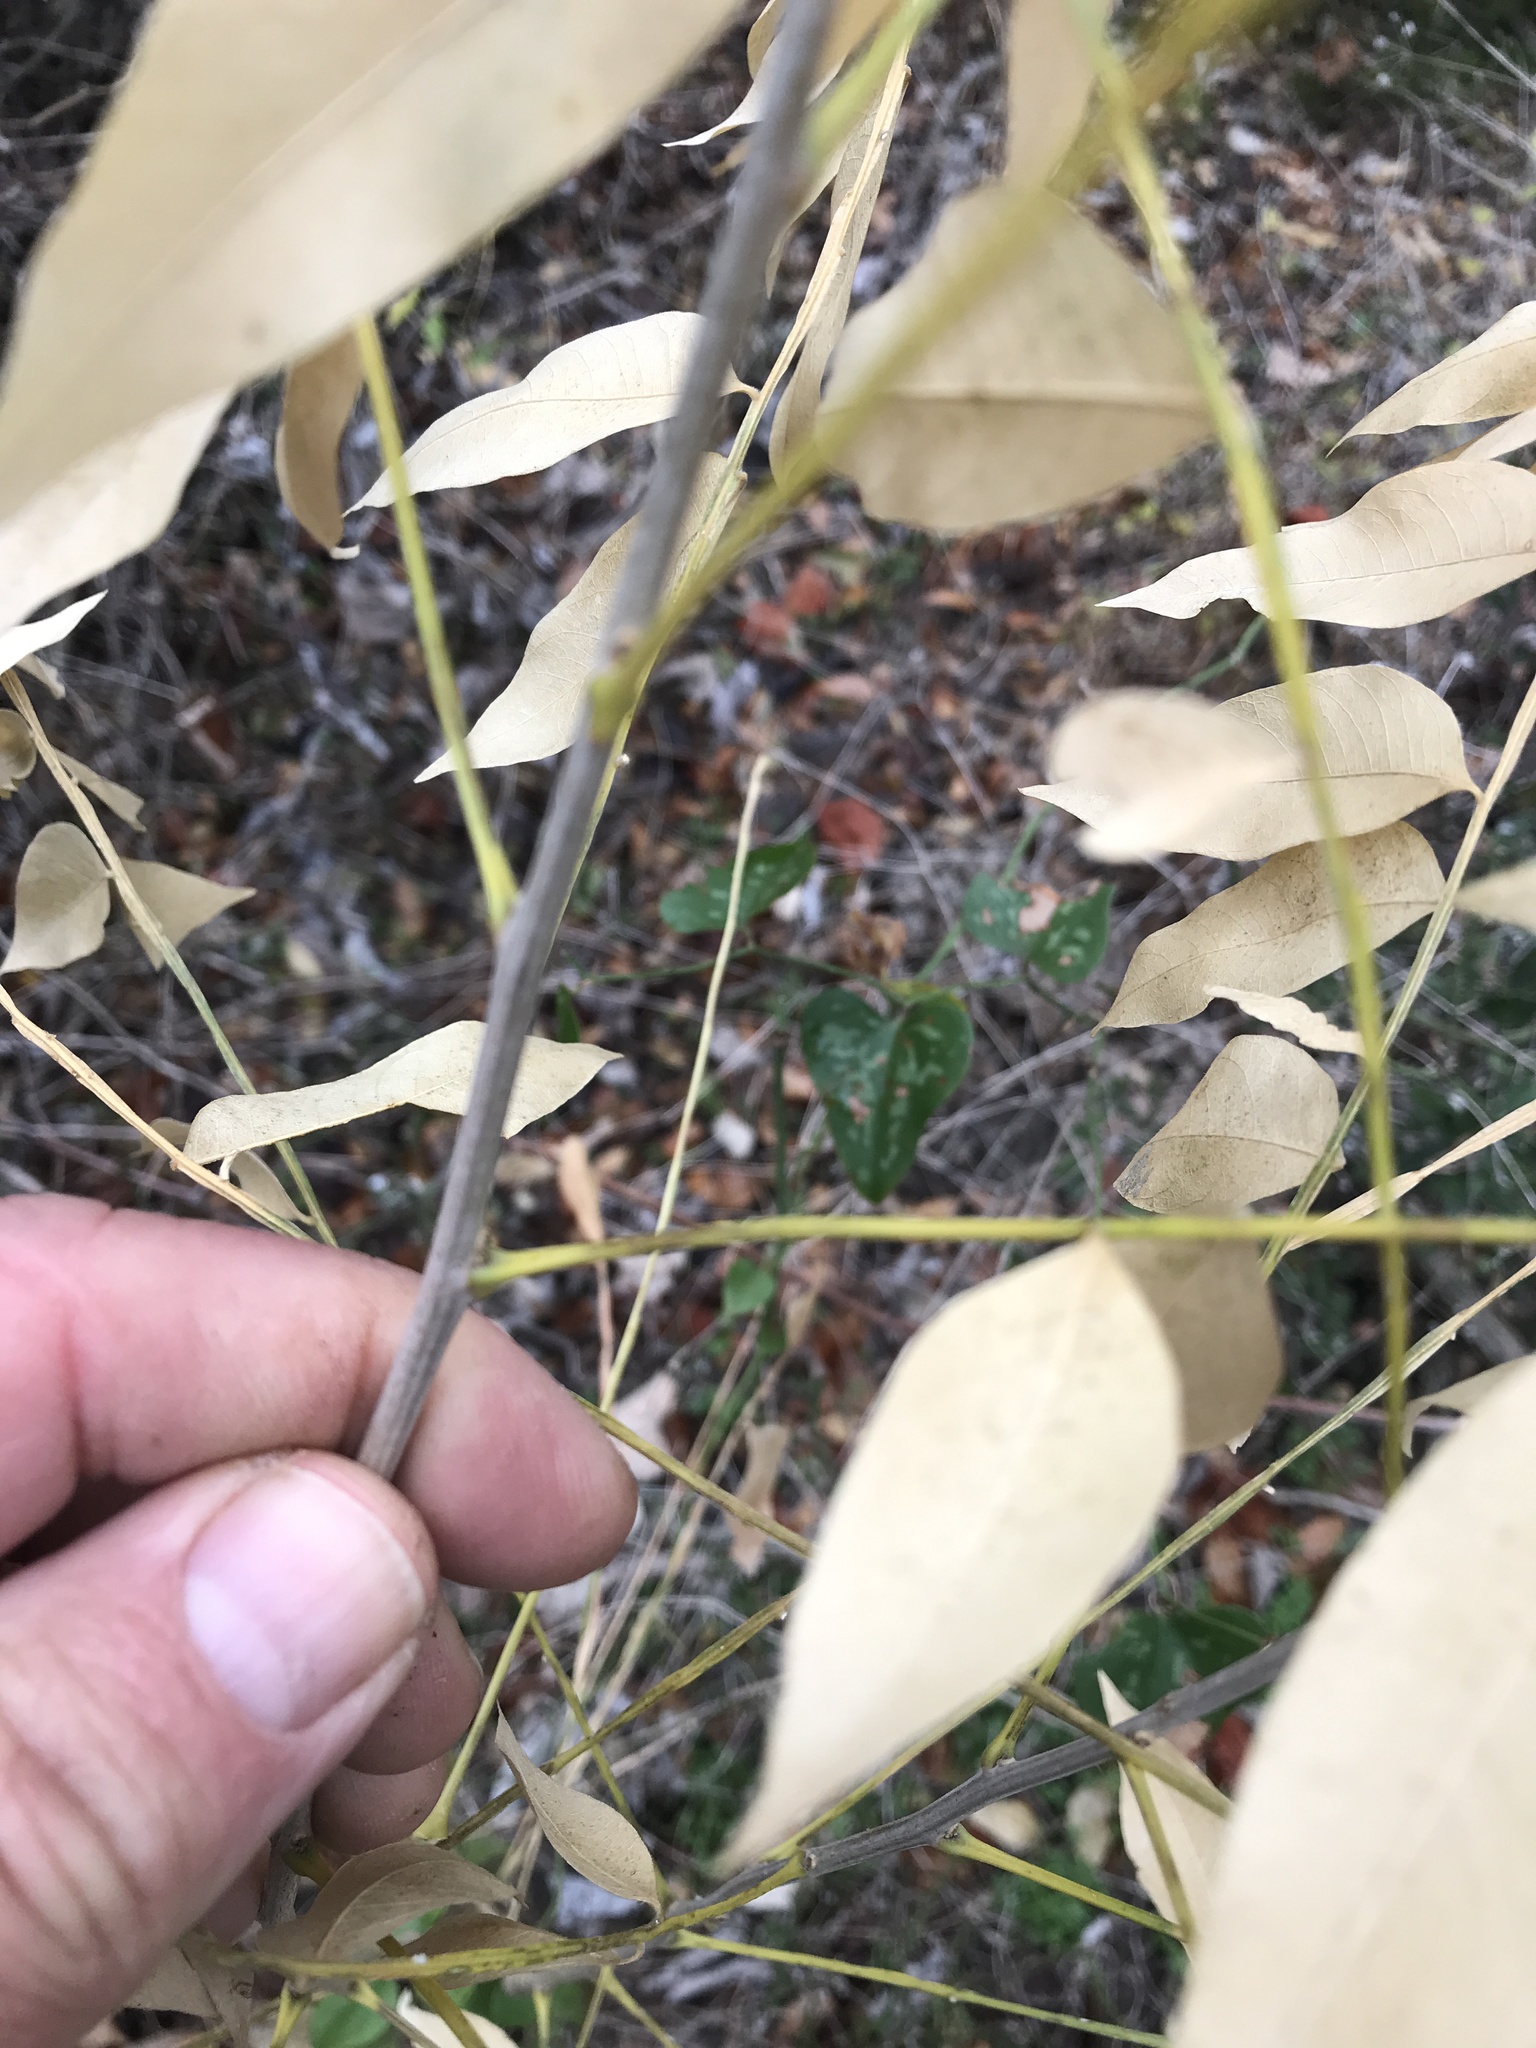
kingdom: Plantae
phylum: Tracheophyta
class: Magnoliopsida
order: Sapindales
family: Sapindaceae
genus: Sapindus
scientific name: Sapindus drummondii
